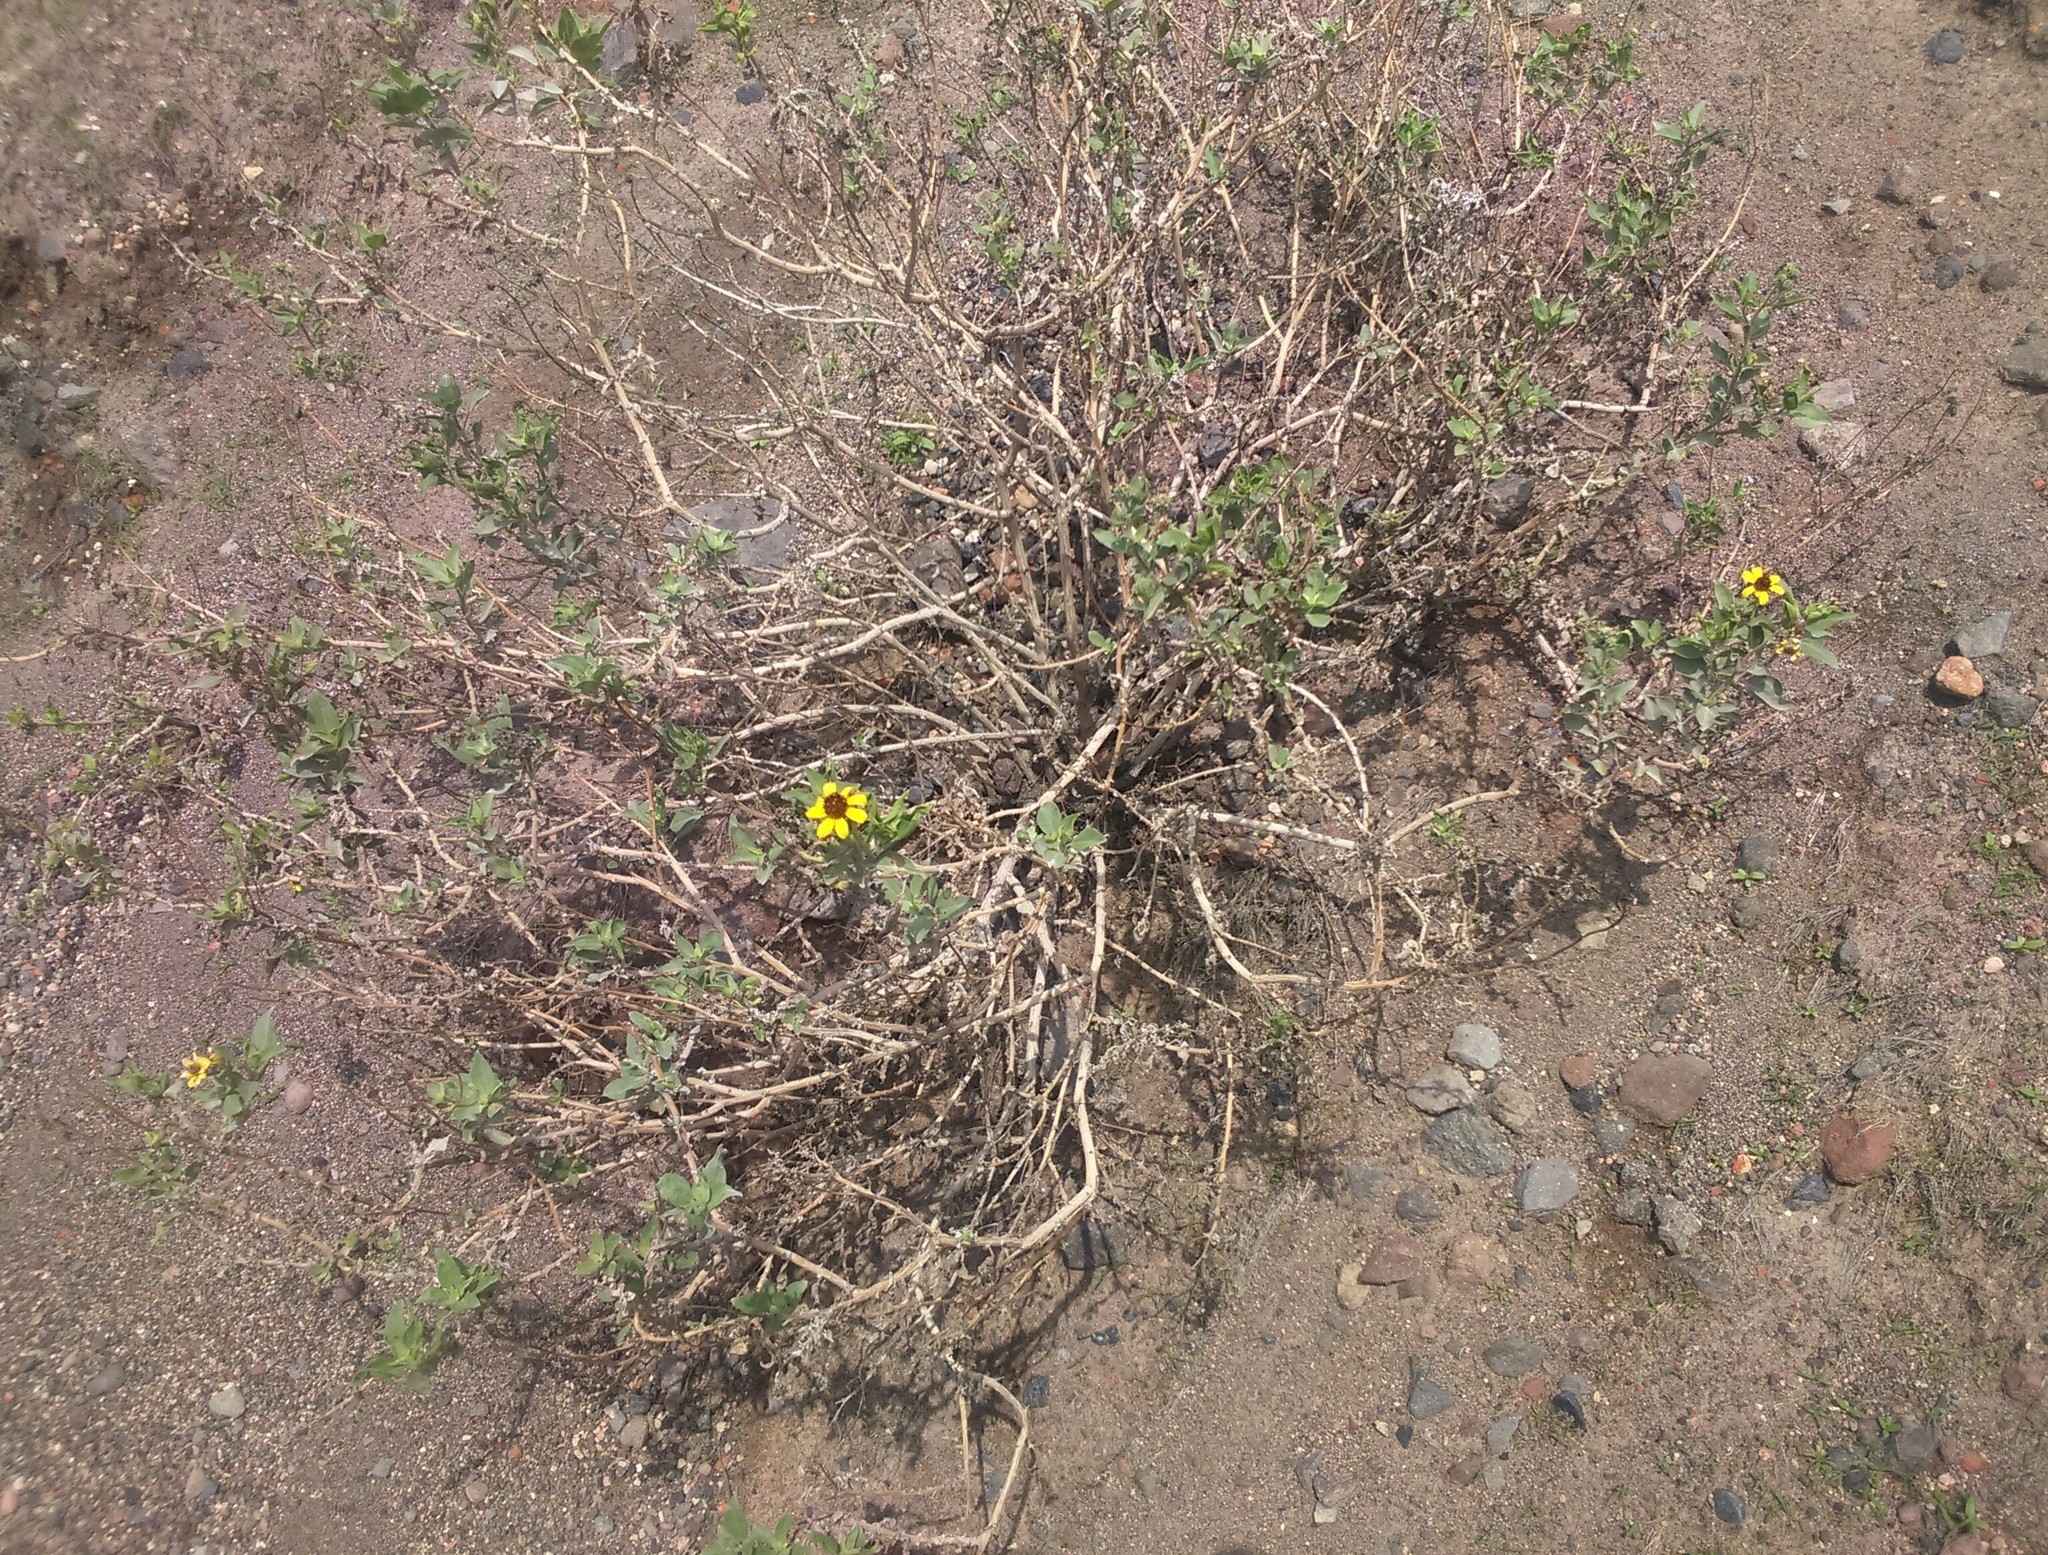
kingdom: Plantae
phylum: Tracheophyta
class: Magnoliopsida
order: Asterales
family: Asteraceae
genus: Encelia
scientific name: Encelia canescens
